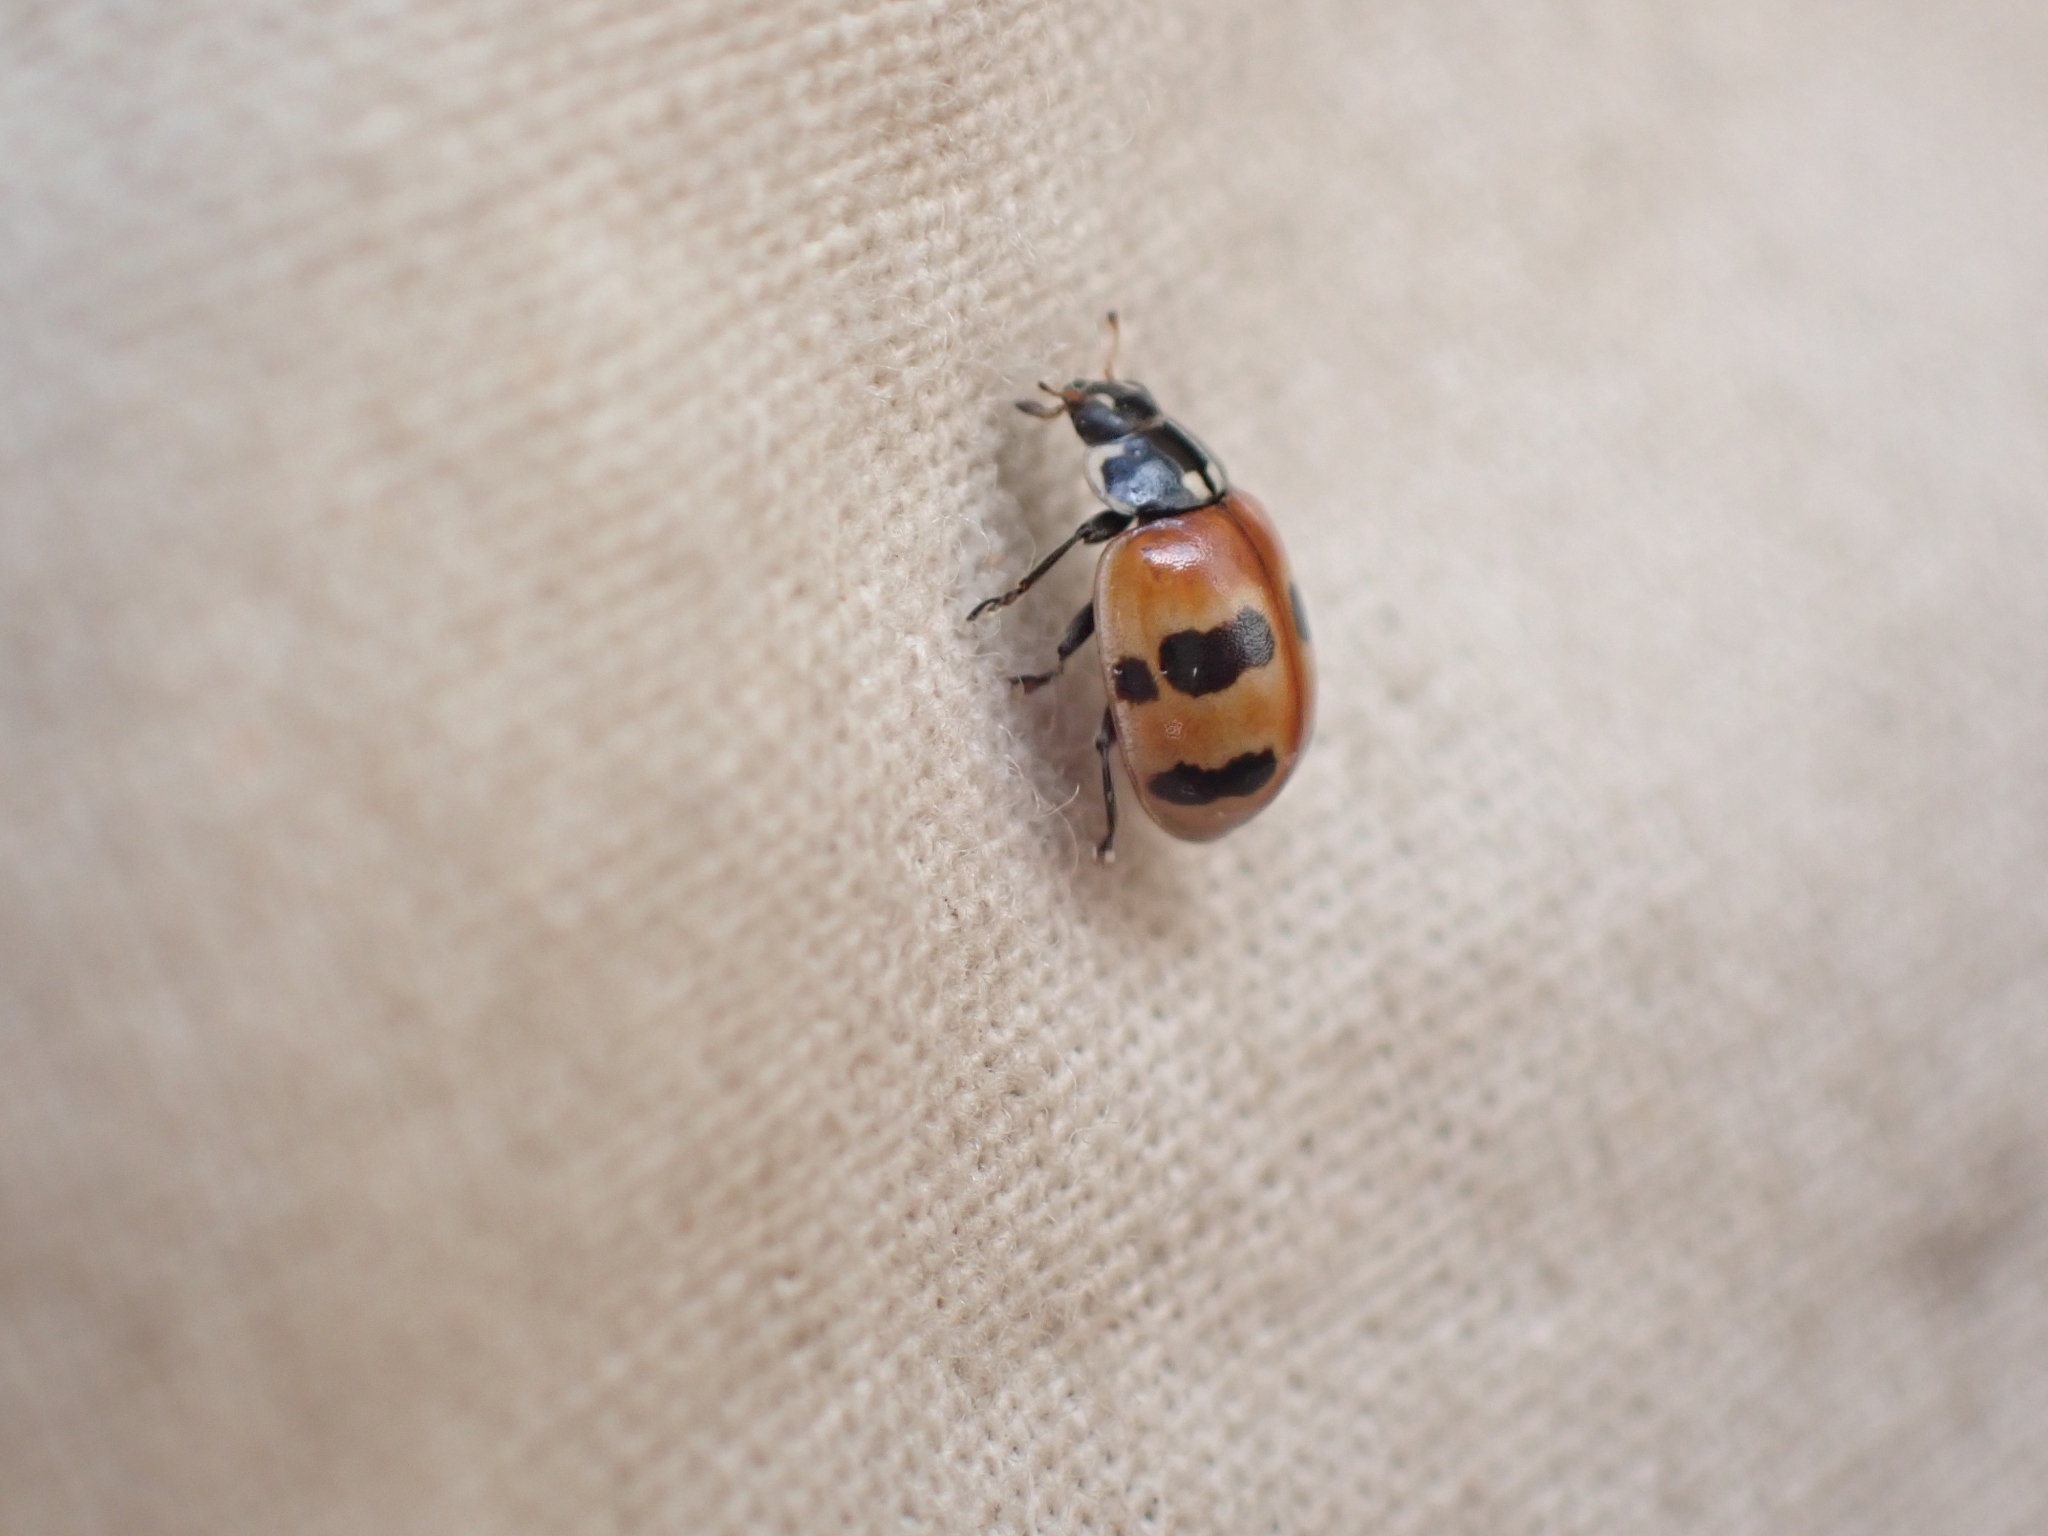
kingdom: Animalia
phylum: Arthropoda
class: Insecta
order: Coleoptera
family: Coccinellidae
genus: Adalia
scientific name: Adalia bipunctata
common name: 2-spot ladybird
